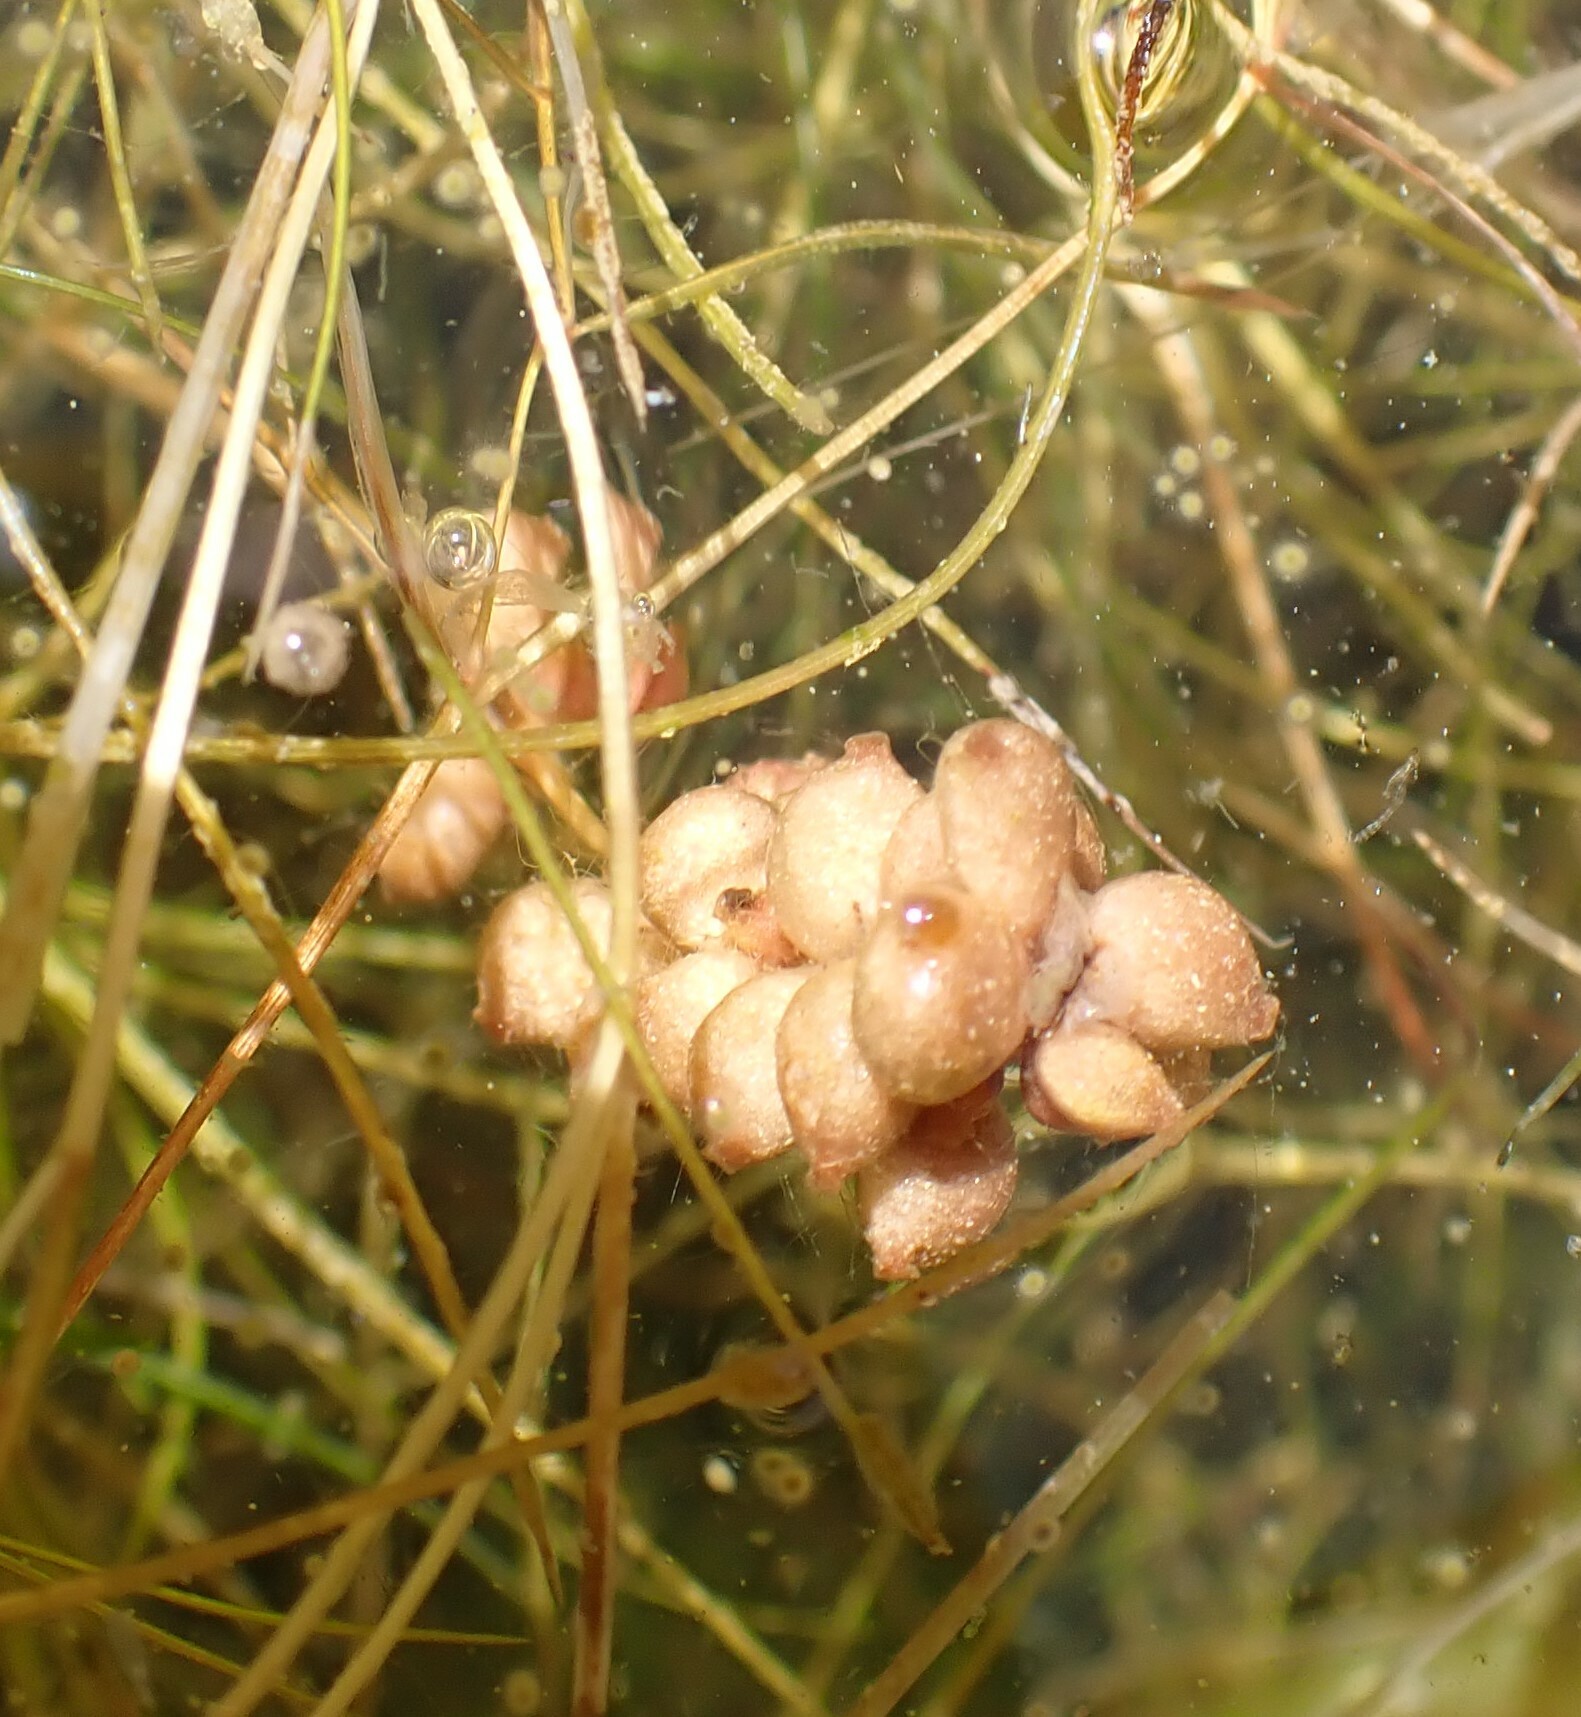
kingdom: Plantae
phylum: Tracheophyta
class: Liliopsida
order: Alismatales
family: Potamogetonaceae
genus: Stuckenia
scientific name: Stuckenia pectinata
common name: Sago pondweed
